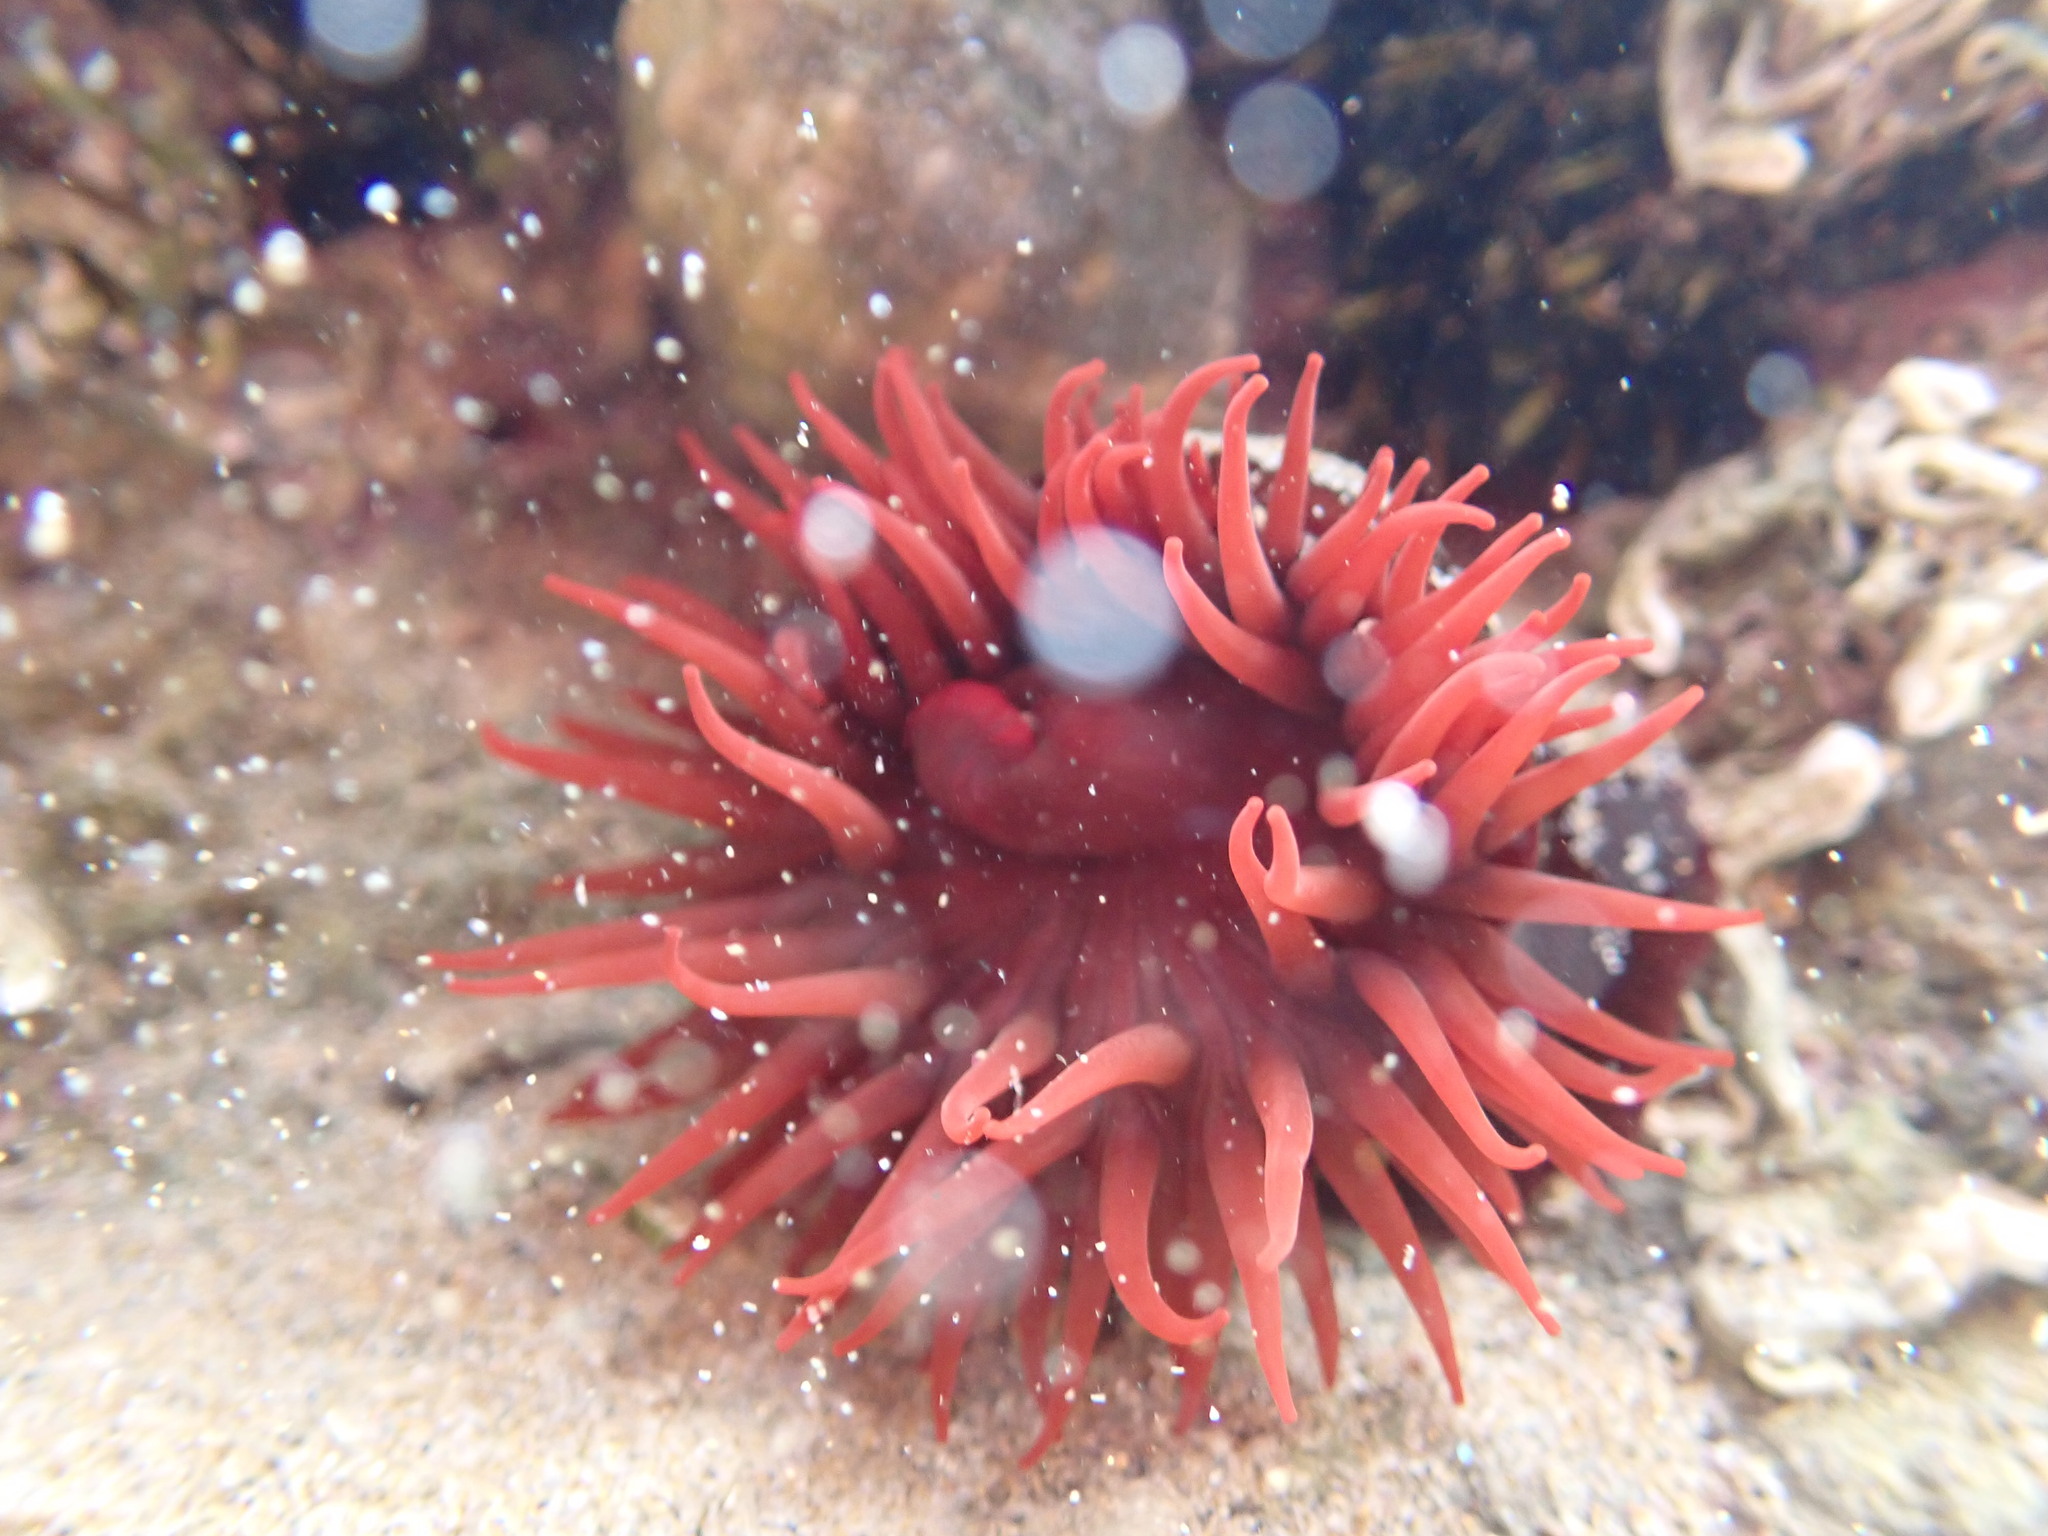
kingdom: Animalia
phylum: Cnidaria
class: Anthozoa
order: Actiniaria
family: Actiniidae
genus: Actinia
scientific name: Actinia tenebrosa
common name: Waratah anemone
